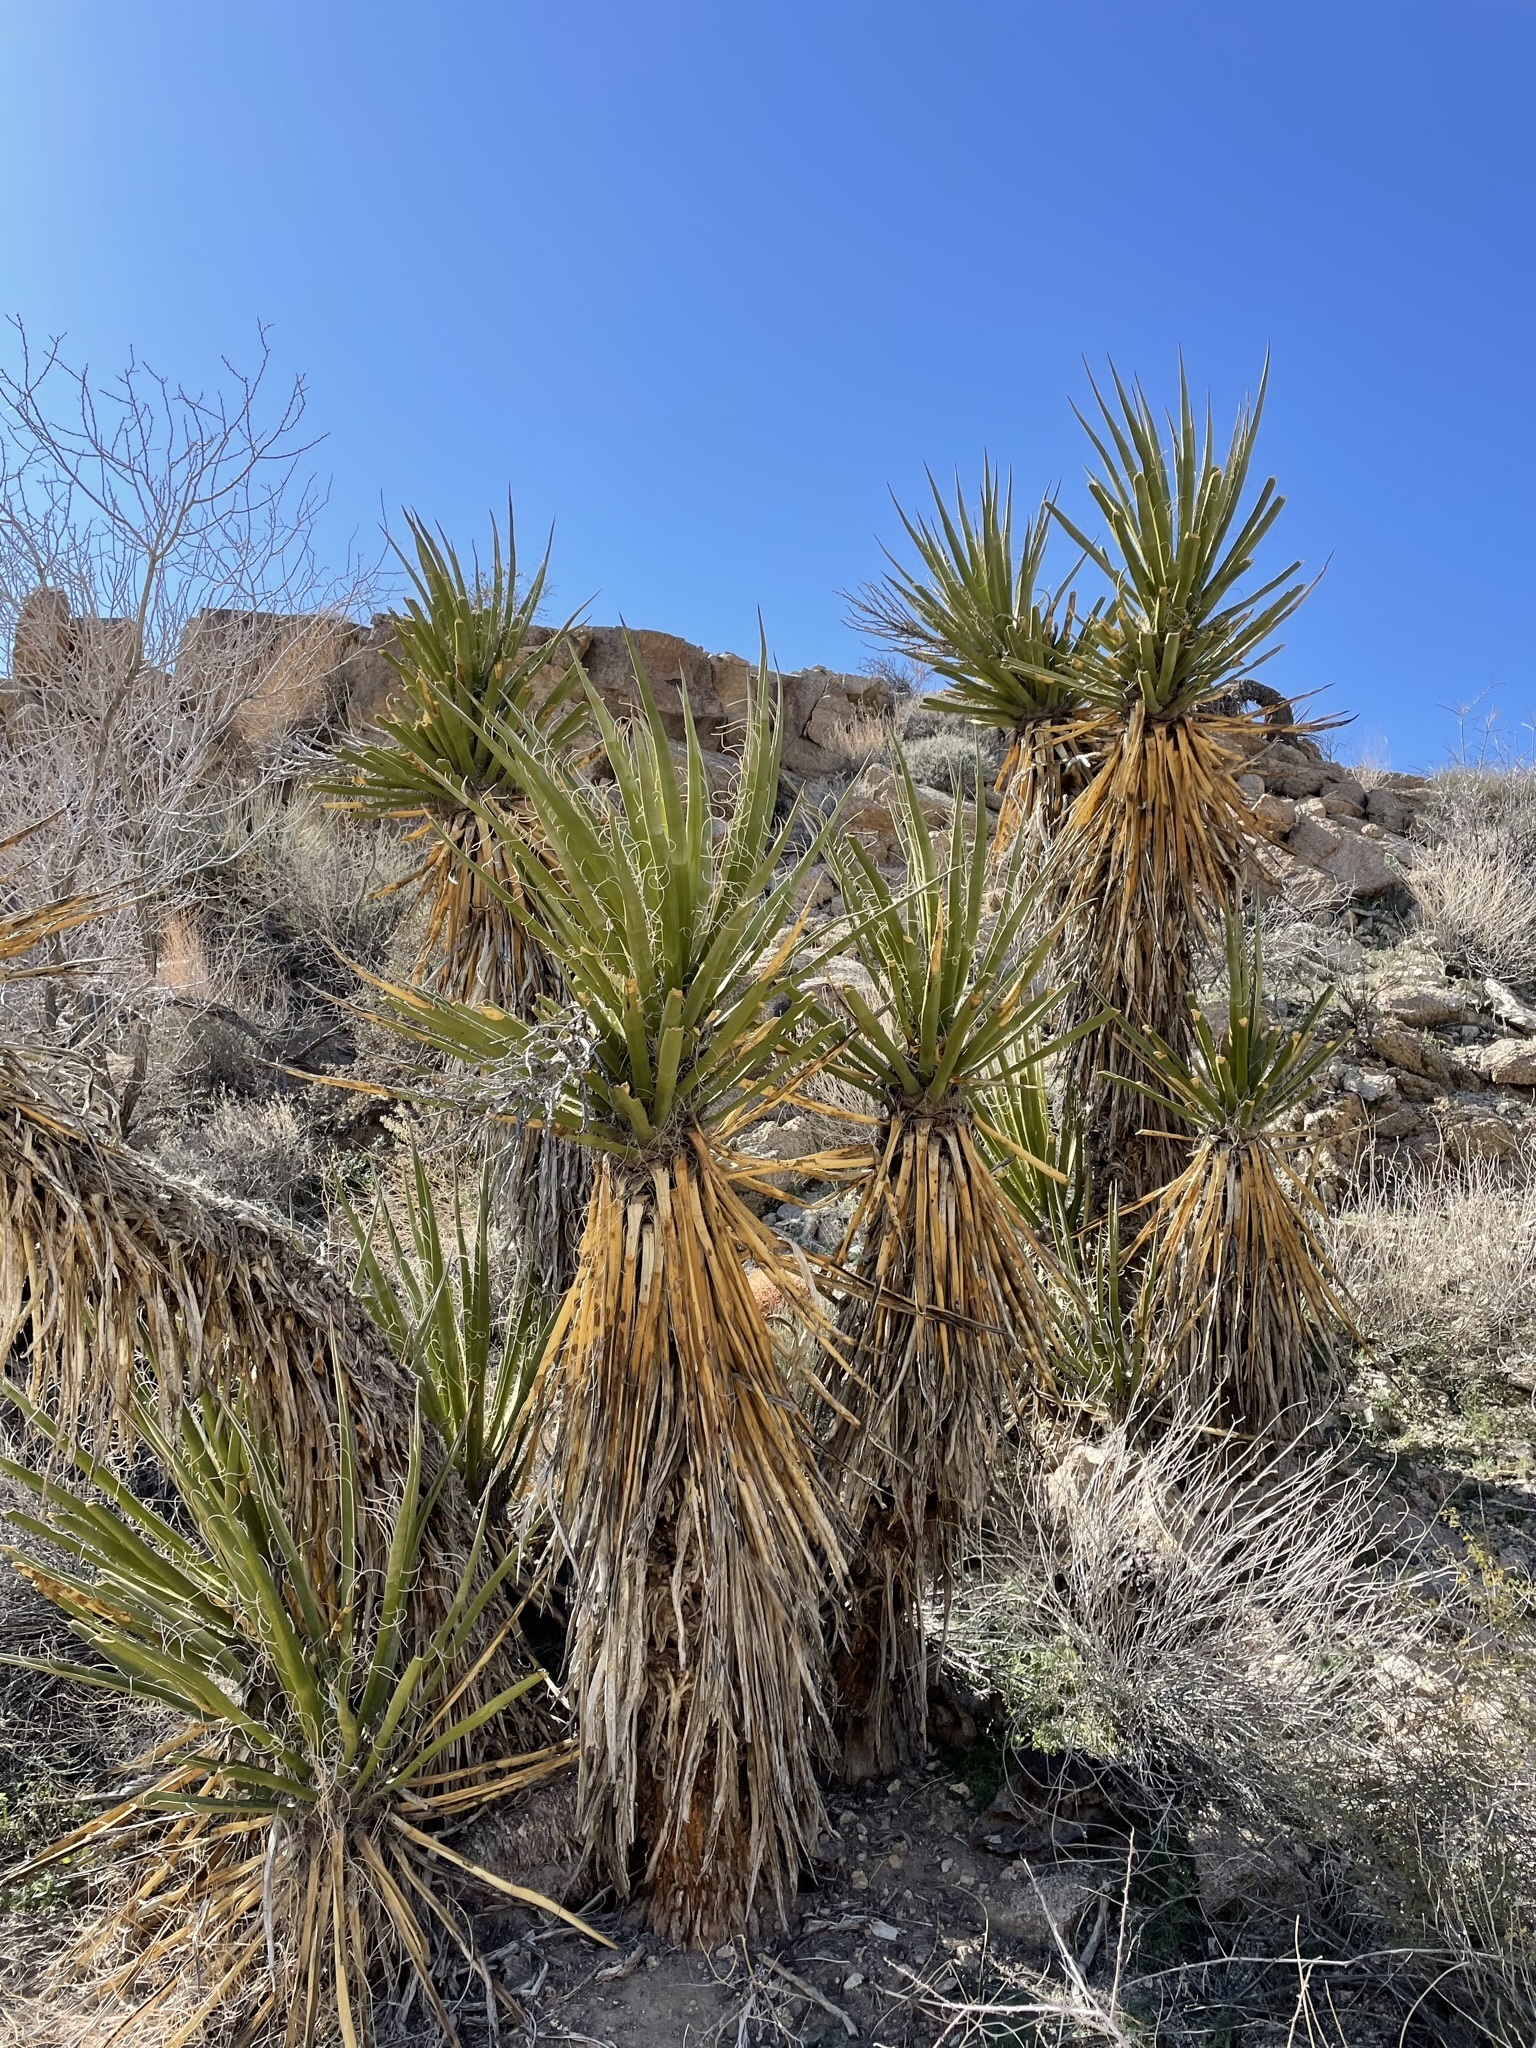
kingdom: Plantae
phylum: Tracheophyta
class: Liliopsida
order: Asparagales
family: Asparagaceae
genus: Yucca
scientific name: Yucca schidigera
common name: Mojave yucca
